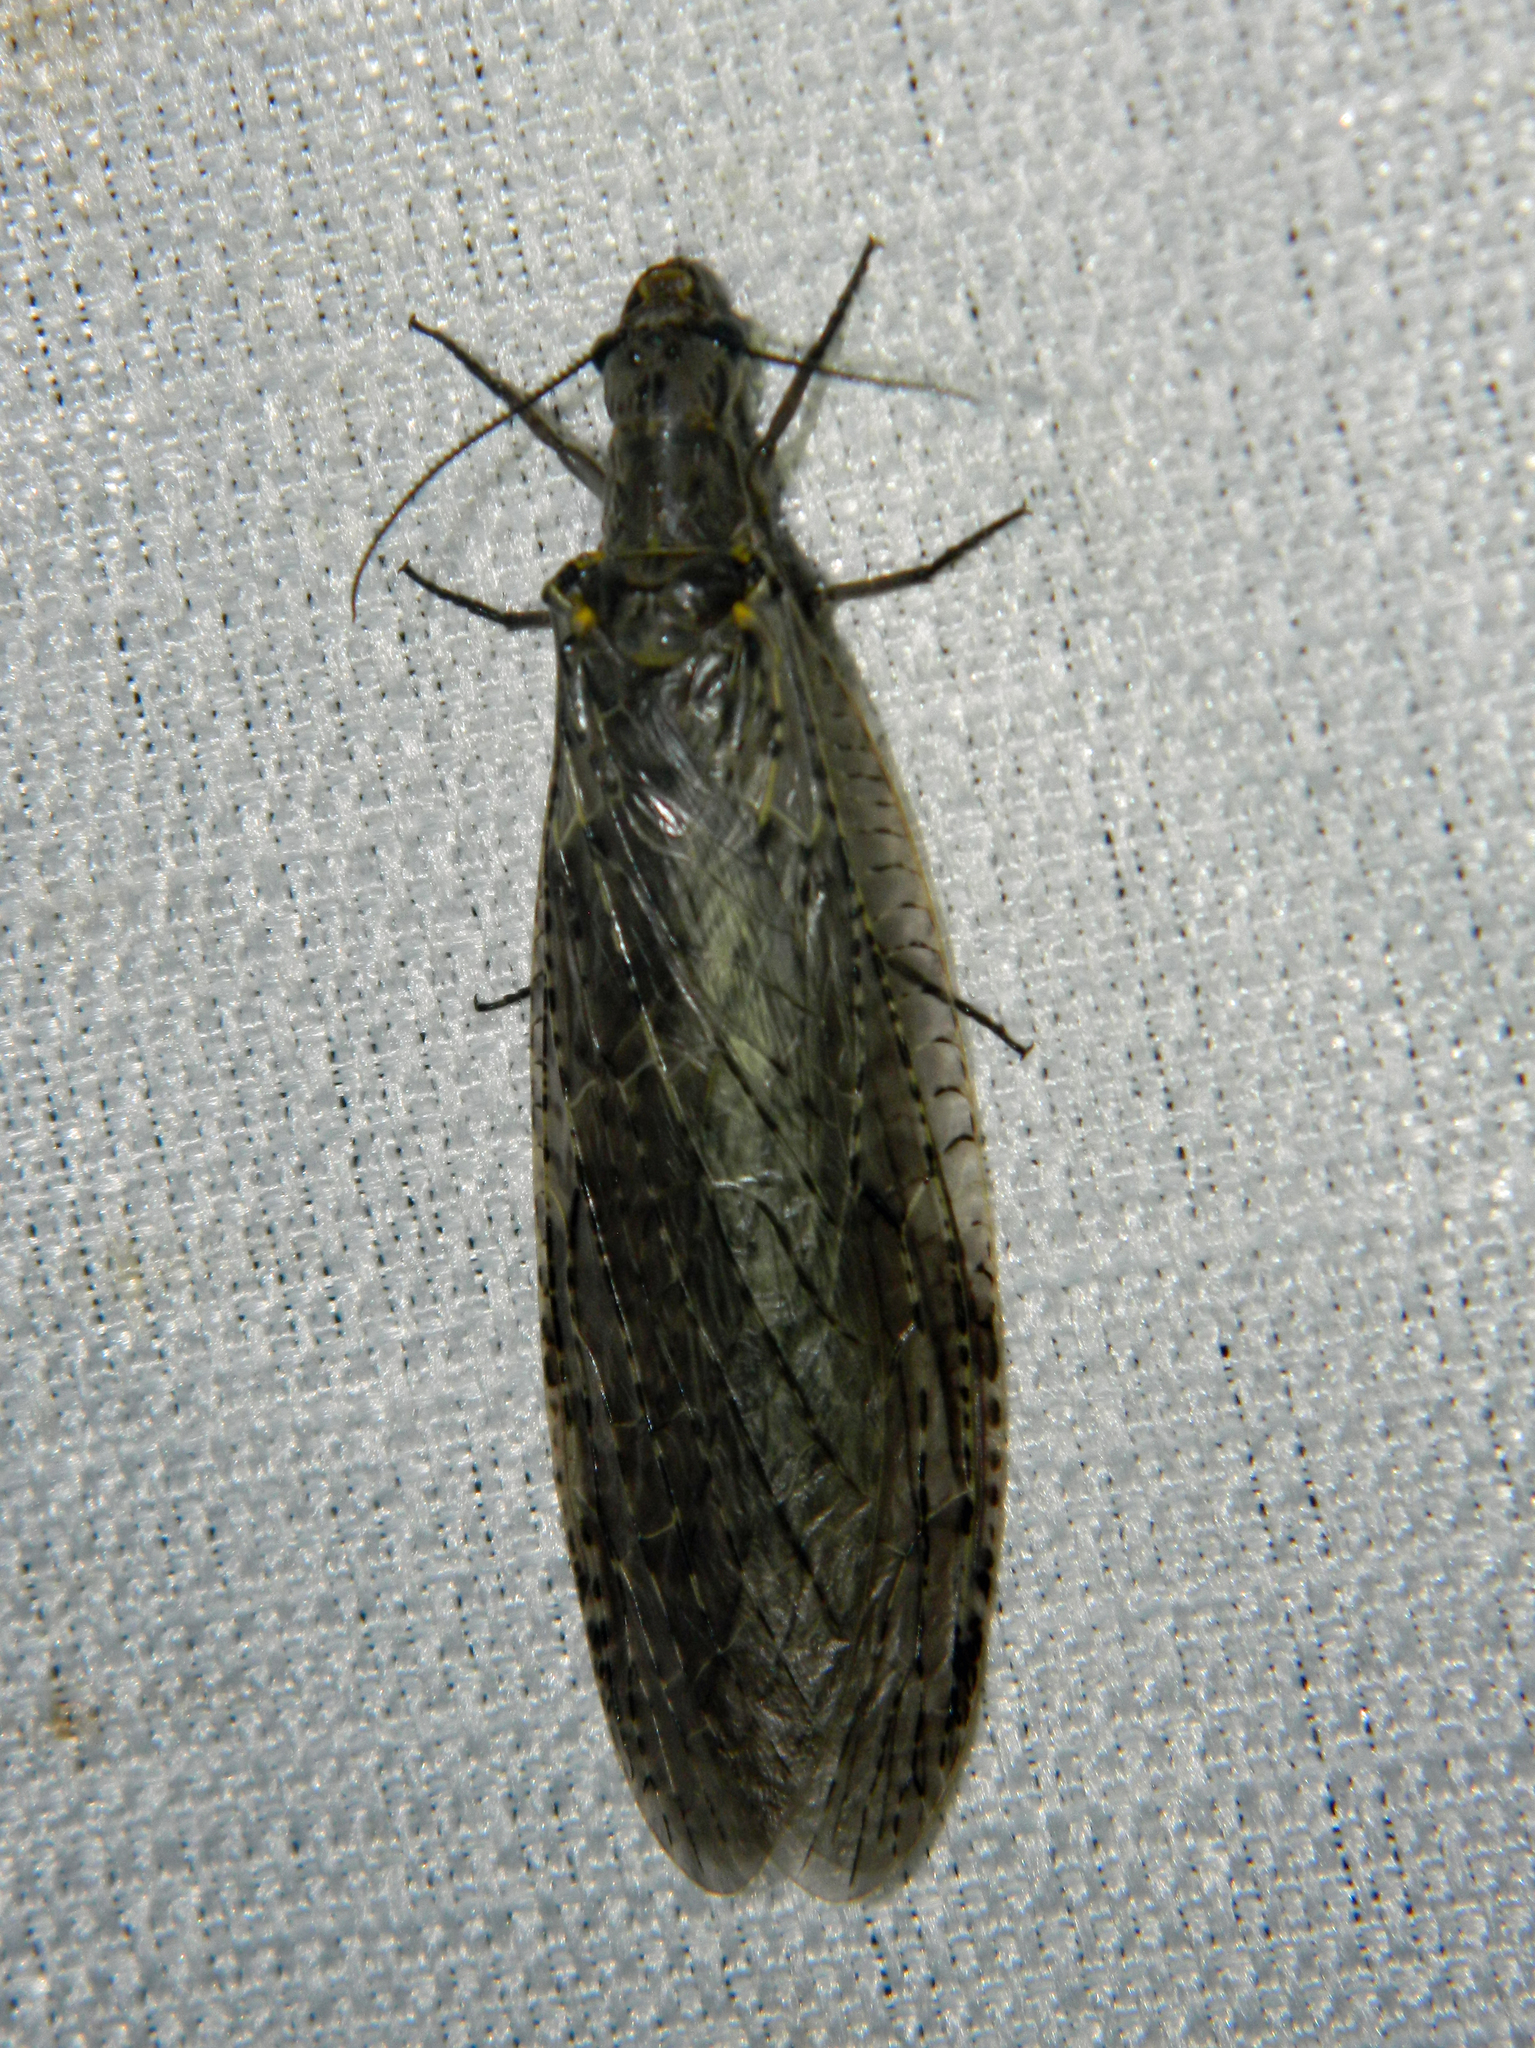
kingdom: Animalia
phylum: Arthropoda
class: Insecta
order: Megaloptera
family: Corydalidae
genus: Chauliodes
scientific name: Chauliodes rastricornis
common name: Spring fishfly
